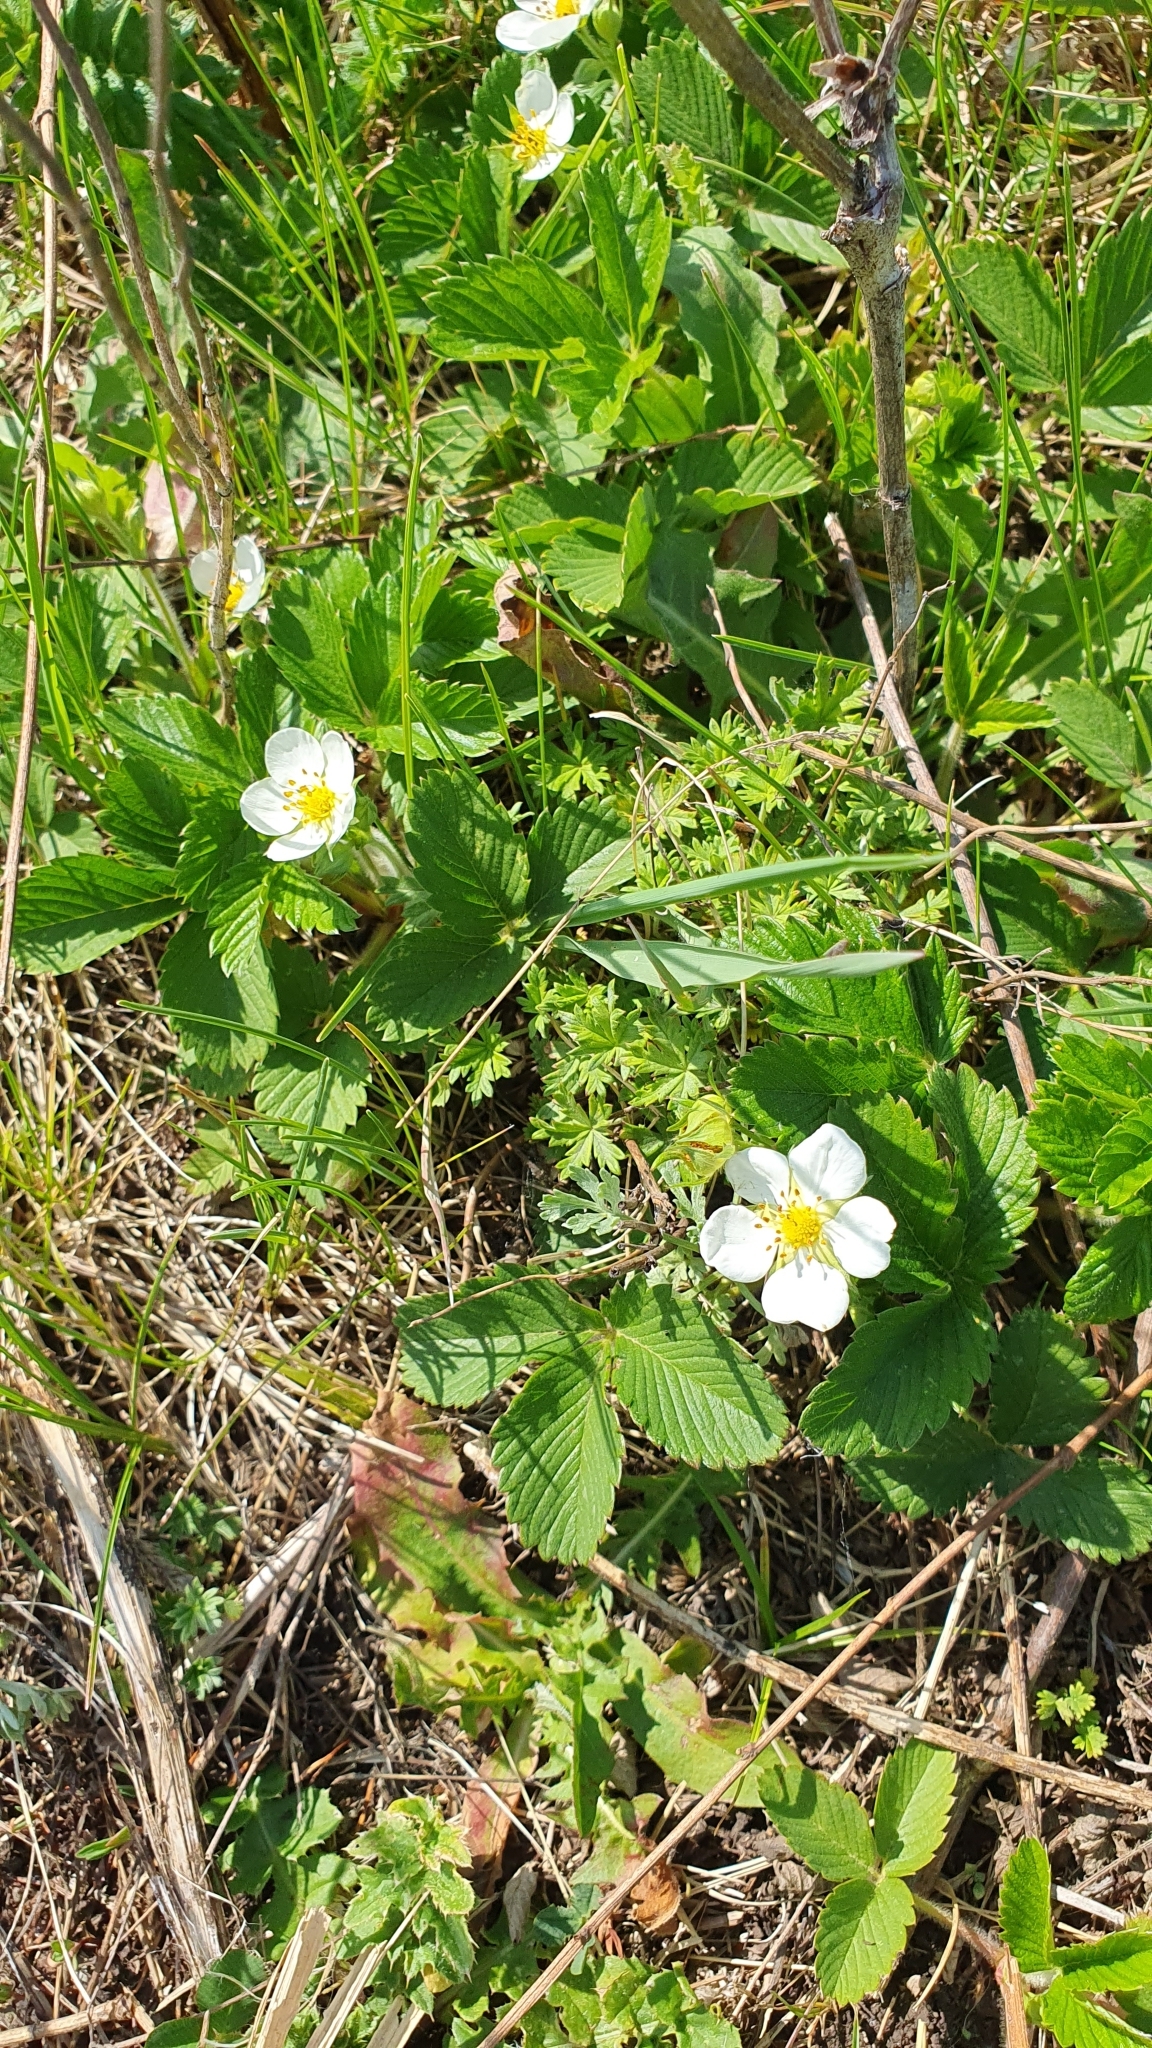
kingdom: Plantae
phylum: Tracheophyta
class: Magnoliopsida
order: Rosales
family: Rosaceae
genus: Fragaria
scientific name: Fragaria viridis
